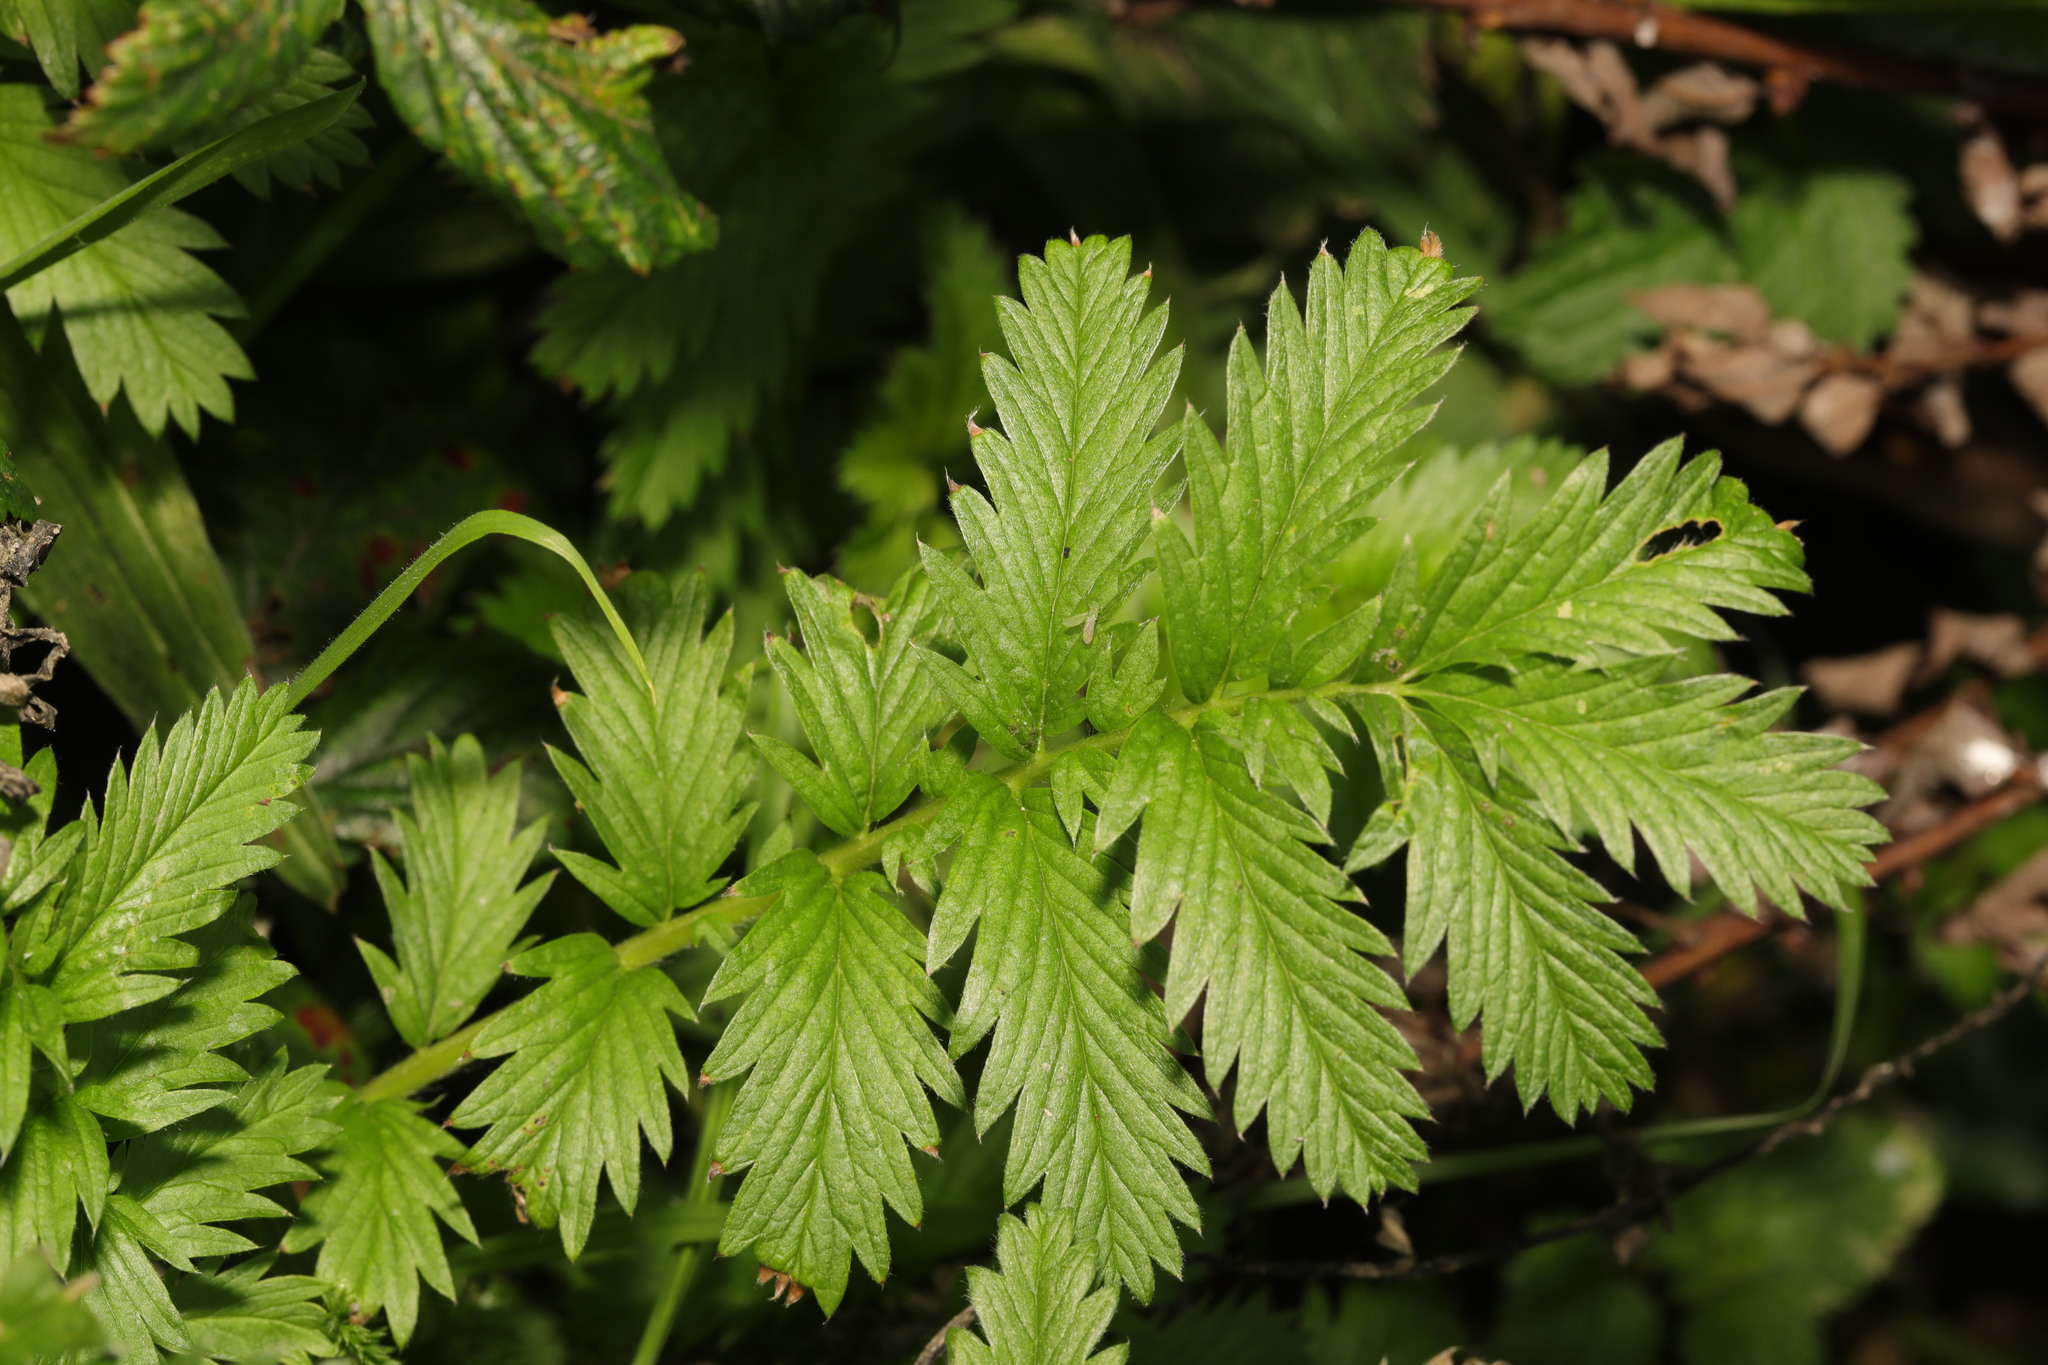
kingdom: Plantae
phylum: Tracheophyta
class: Magnoliopsida
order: Rosales
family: Rosaceae
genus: Argentina
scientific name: Argentina anserina
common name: Common silverweed
